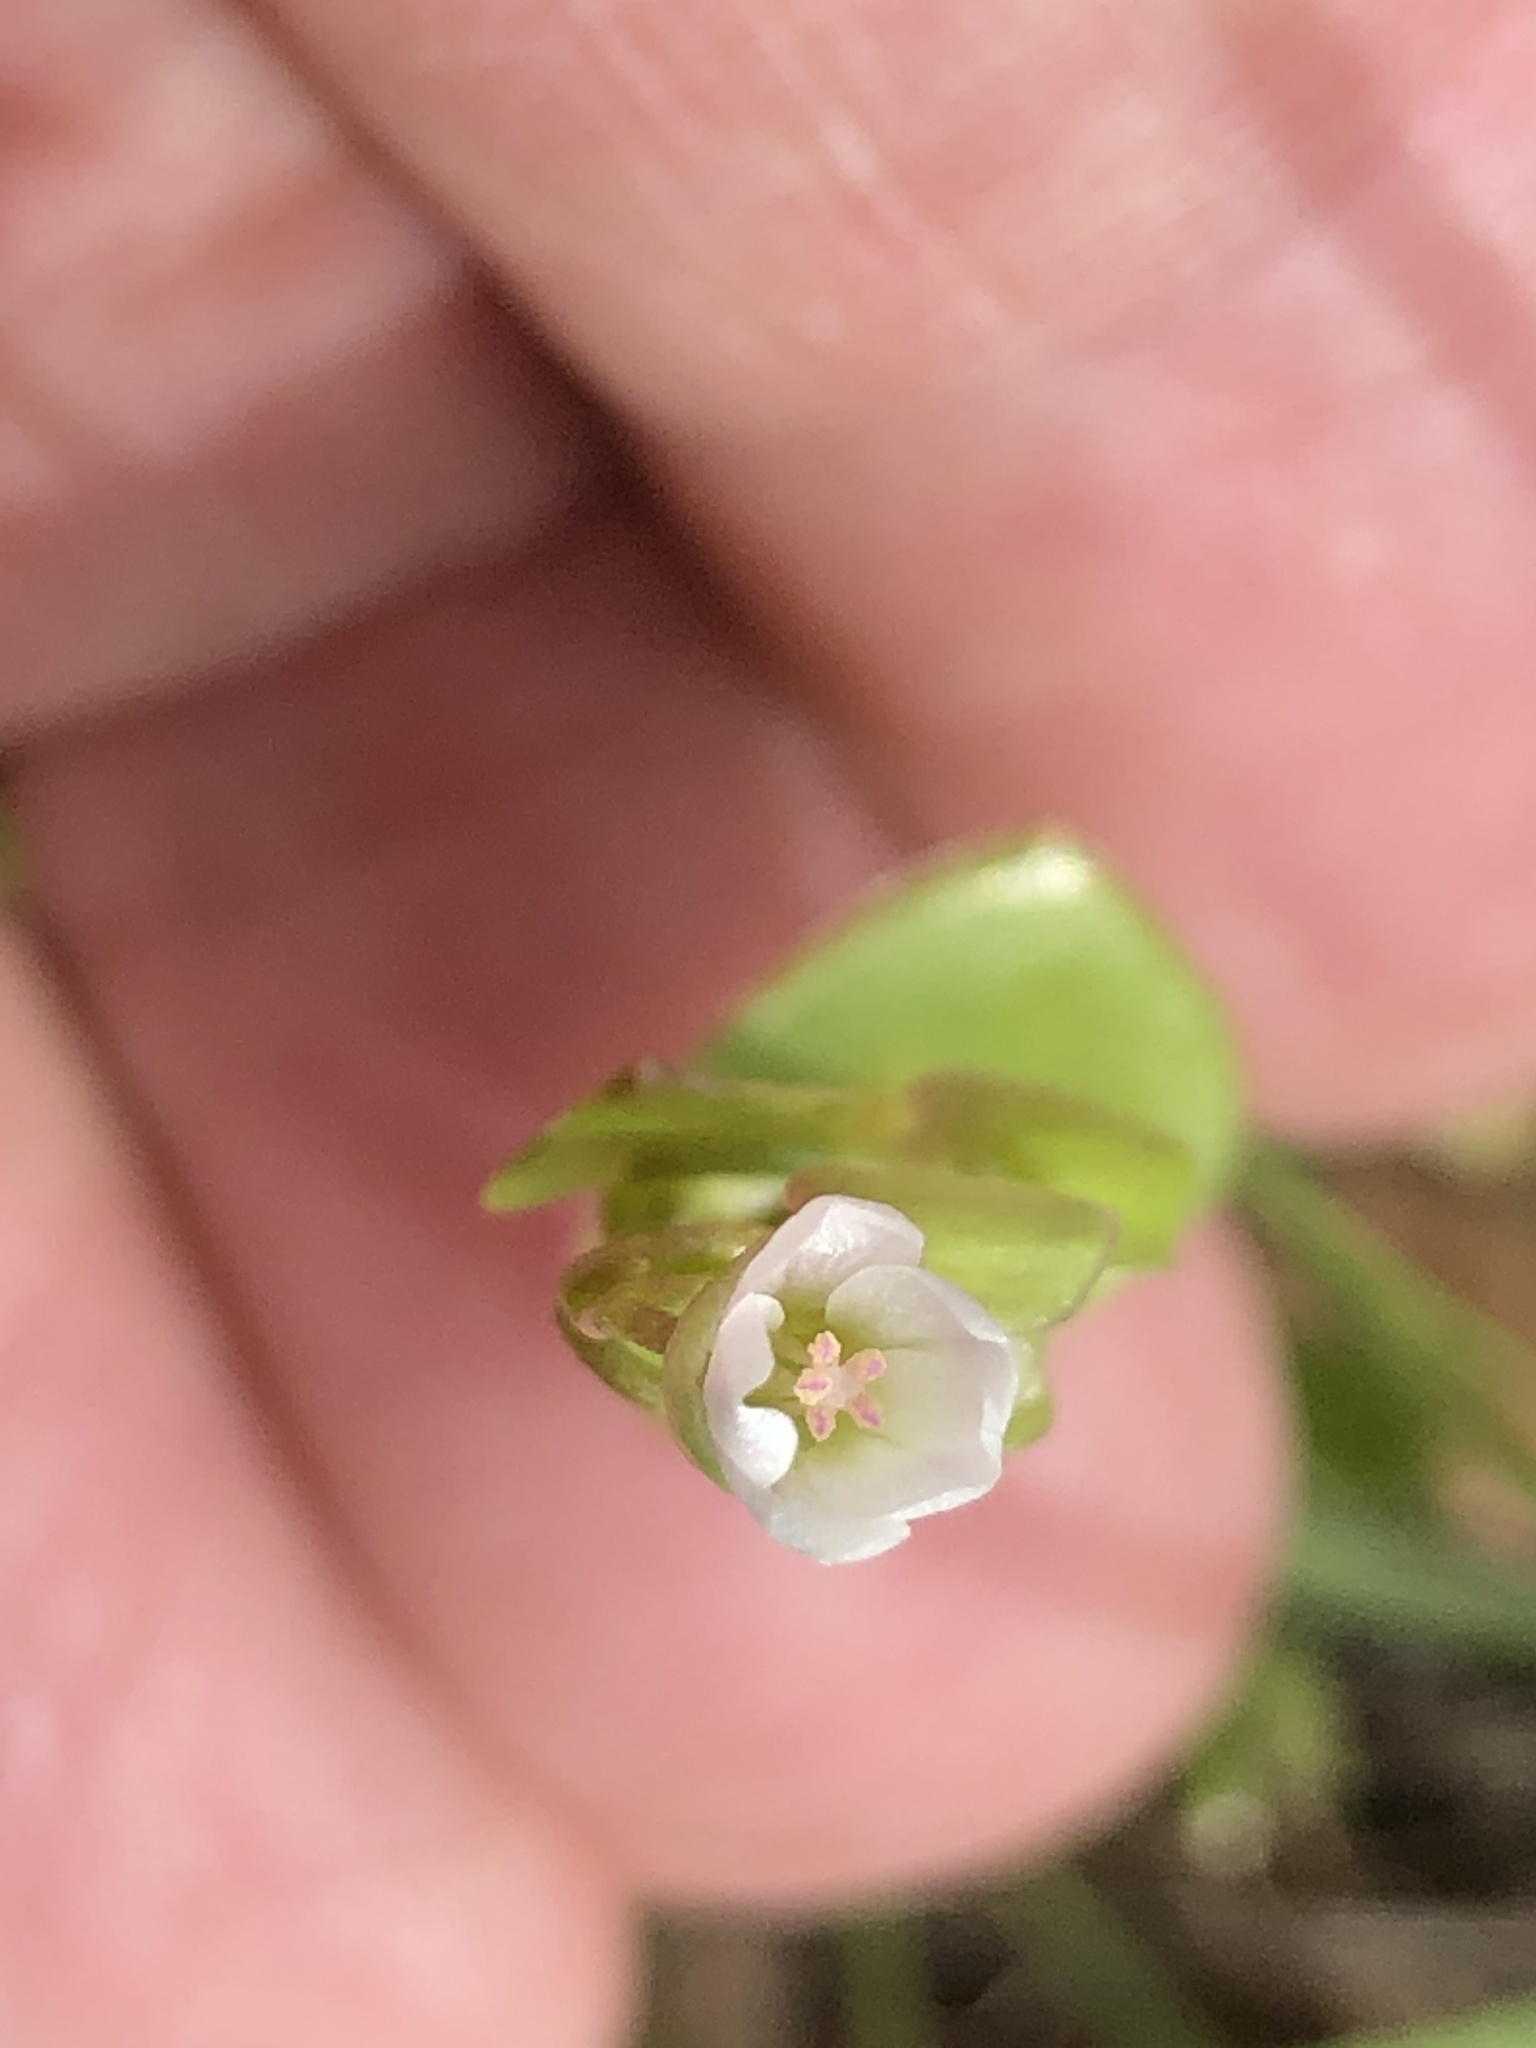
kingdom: Plantae
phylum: Tracheophyta
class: Magnoliopsida
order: Caryophyllales
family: Montiaceae
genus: Claytonia
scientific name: Claytonia perfoliata
